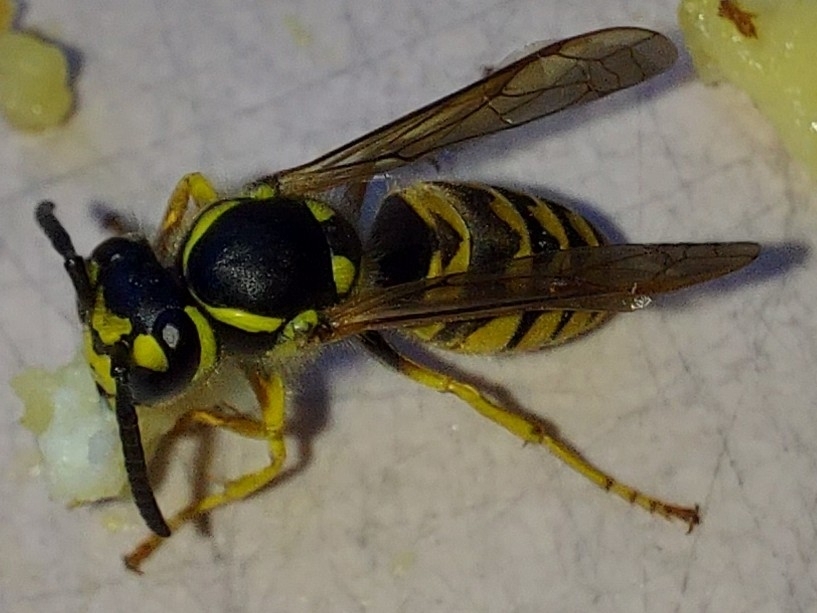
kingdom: Animalia
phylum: Arthropoda
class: Insecta
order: Hymenoptera
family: Vespidae
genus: Vespula
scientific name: Vespula germanica
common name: German wasp
